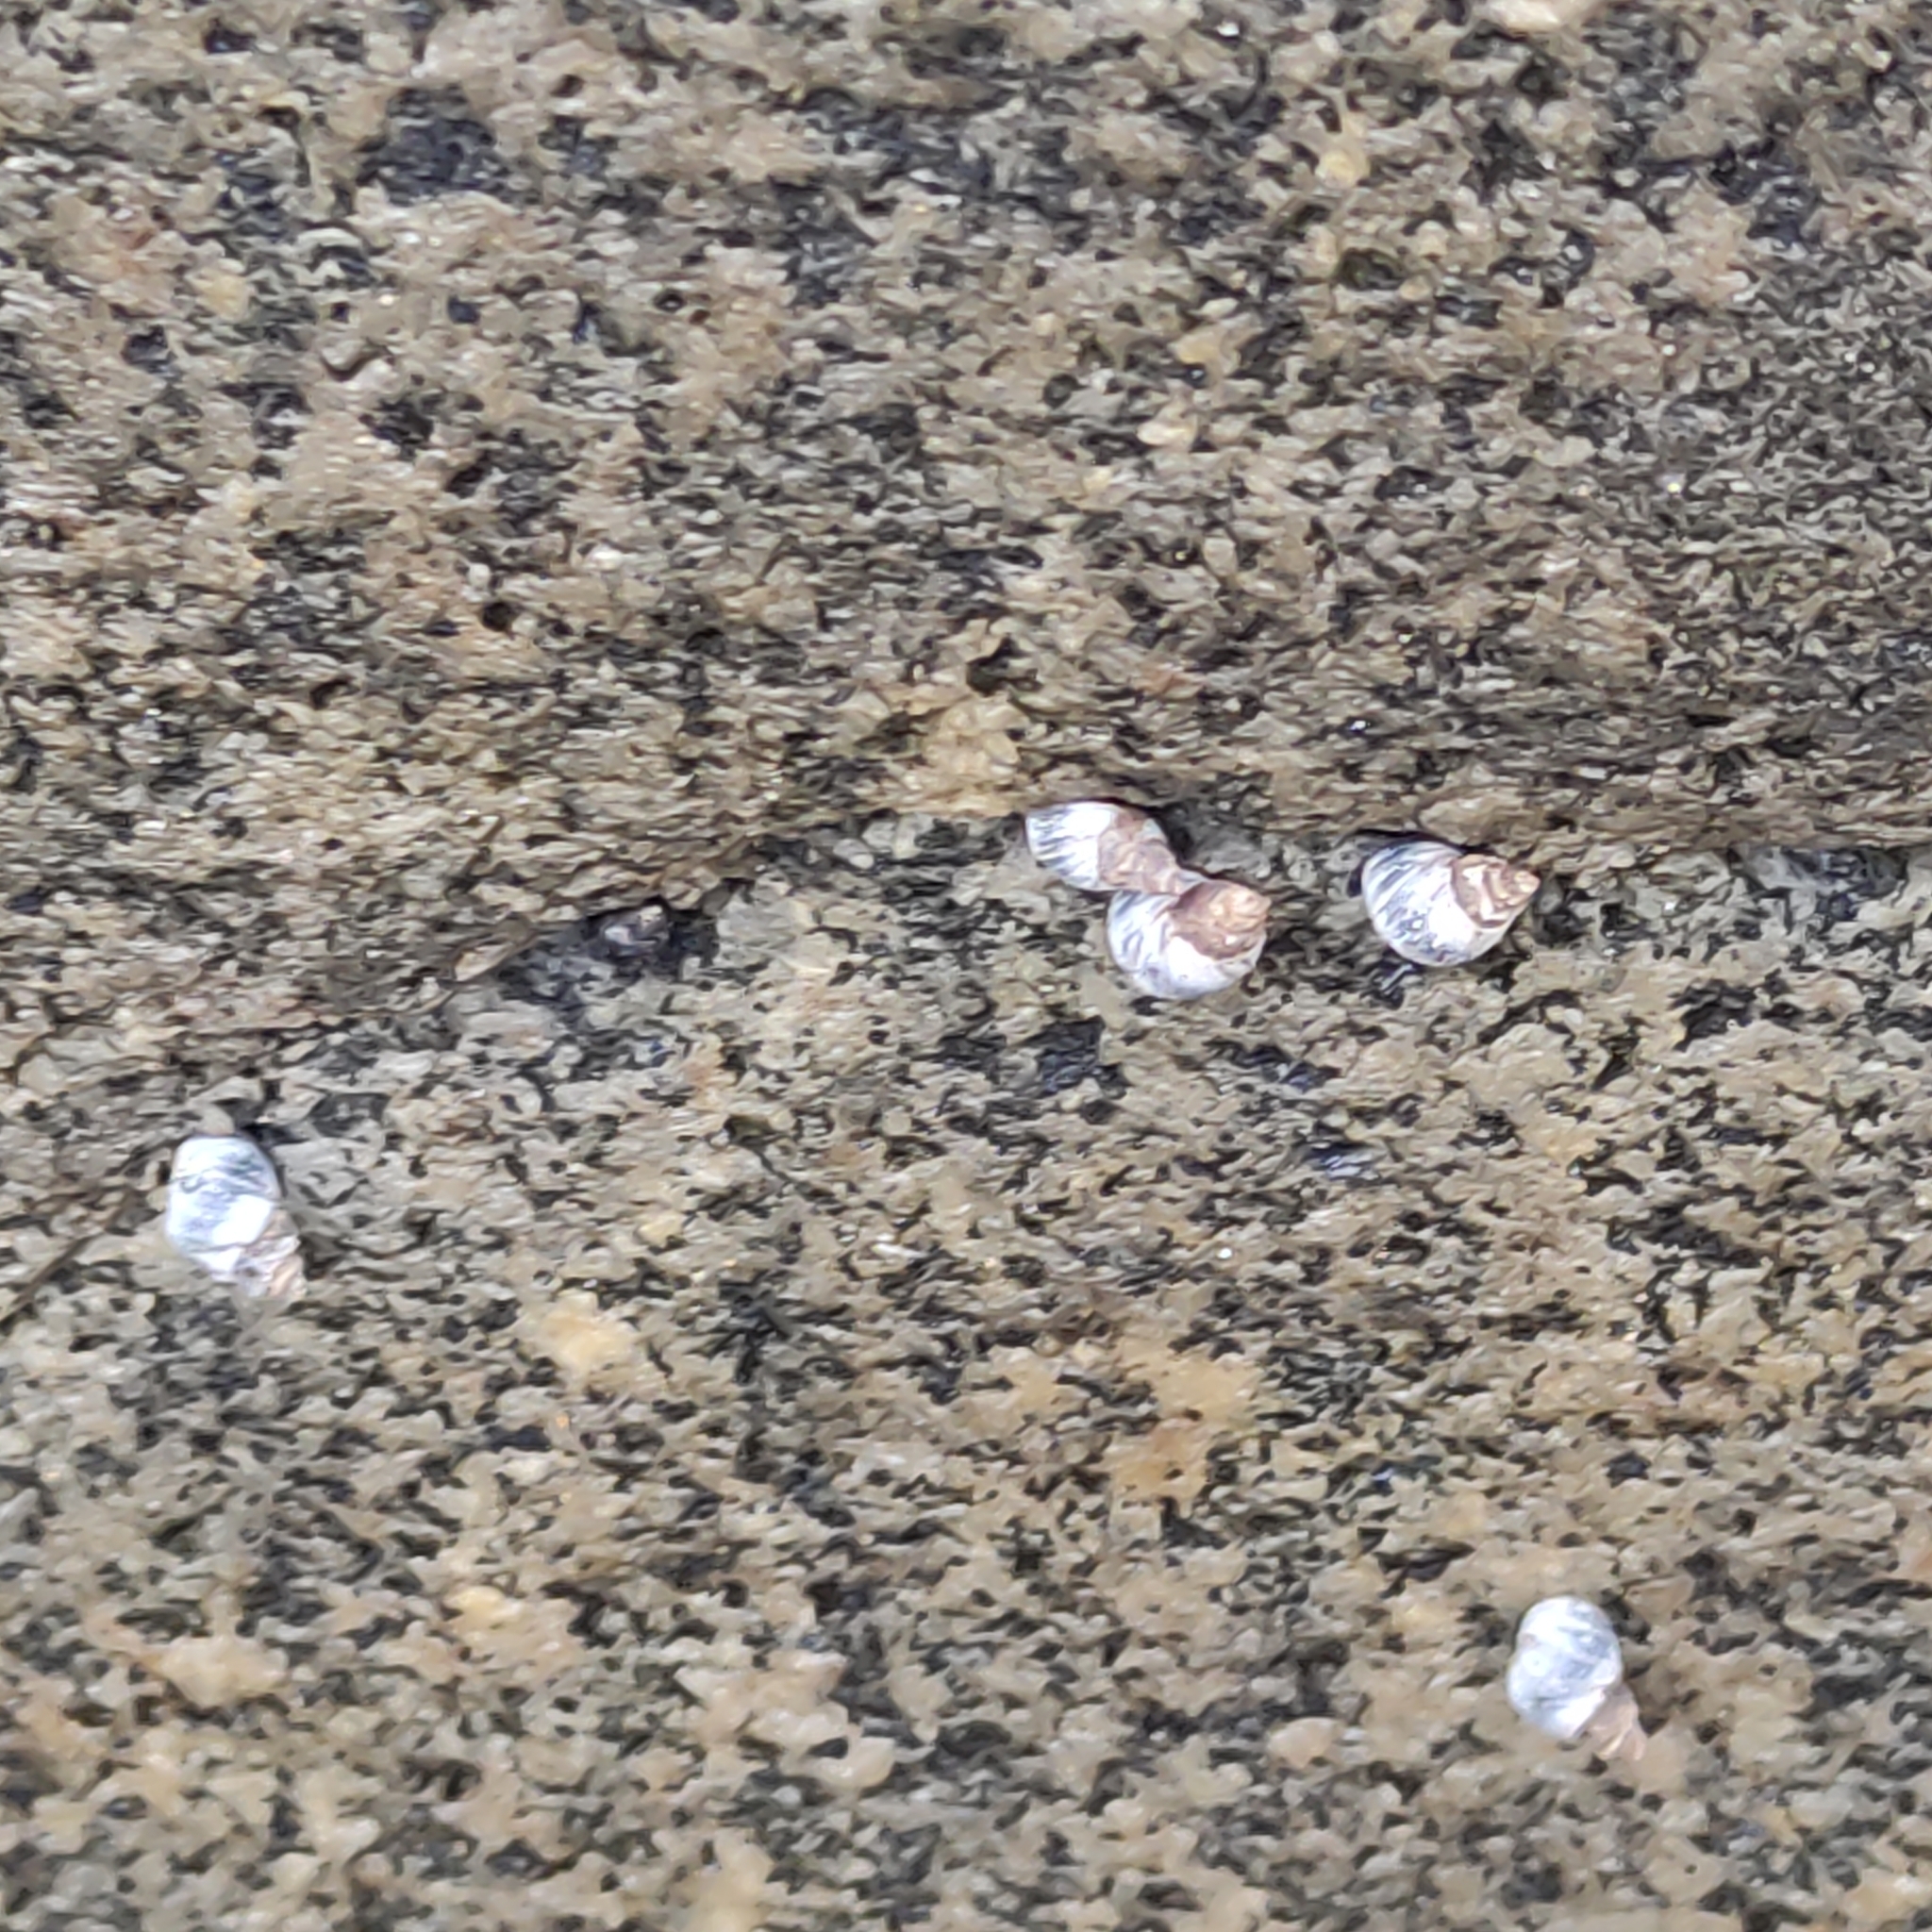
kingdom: Animalia
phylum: Mollusca
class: Gastropoda
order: Littorinimorpha
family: Littorinidae
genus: Austrolittorina
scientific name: Austrolittorina antipodum
